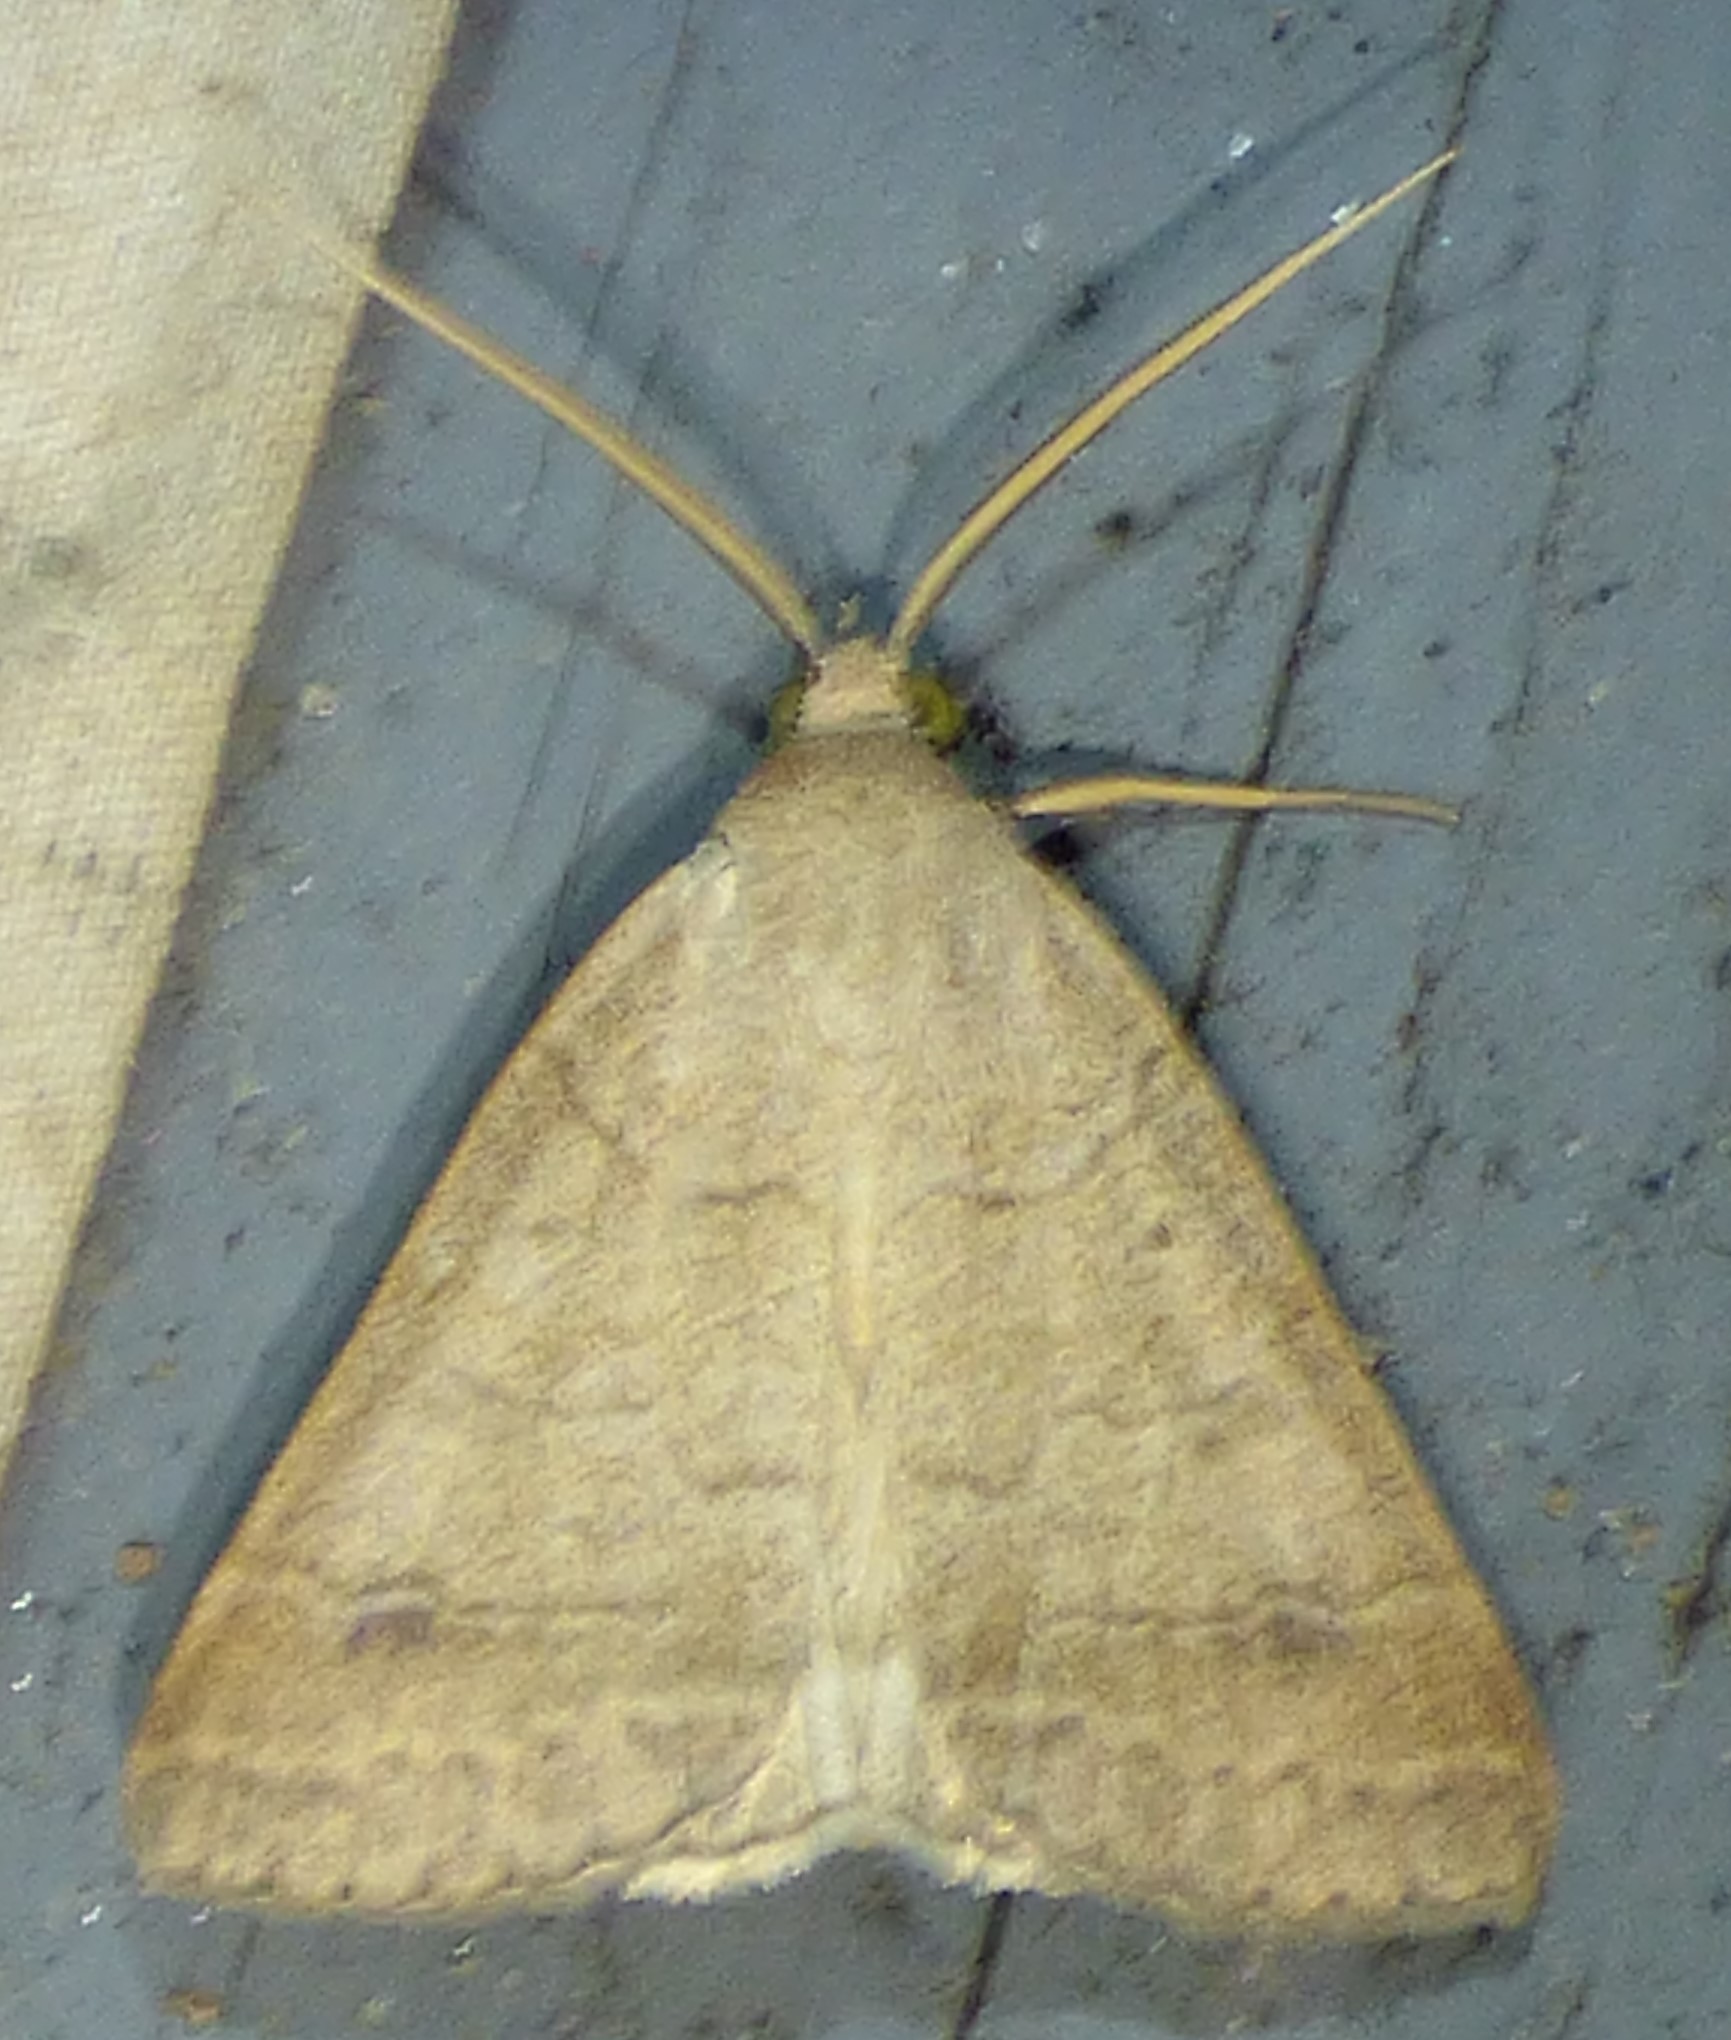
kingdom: Animalia
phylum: Arthropoda
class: Insecta
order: Lepidoptera
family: Erebidae
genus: Caenurgia
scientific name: Caenurgia chloropha
